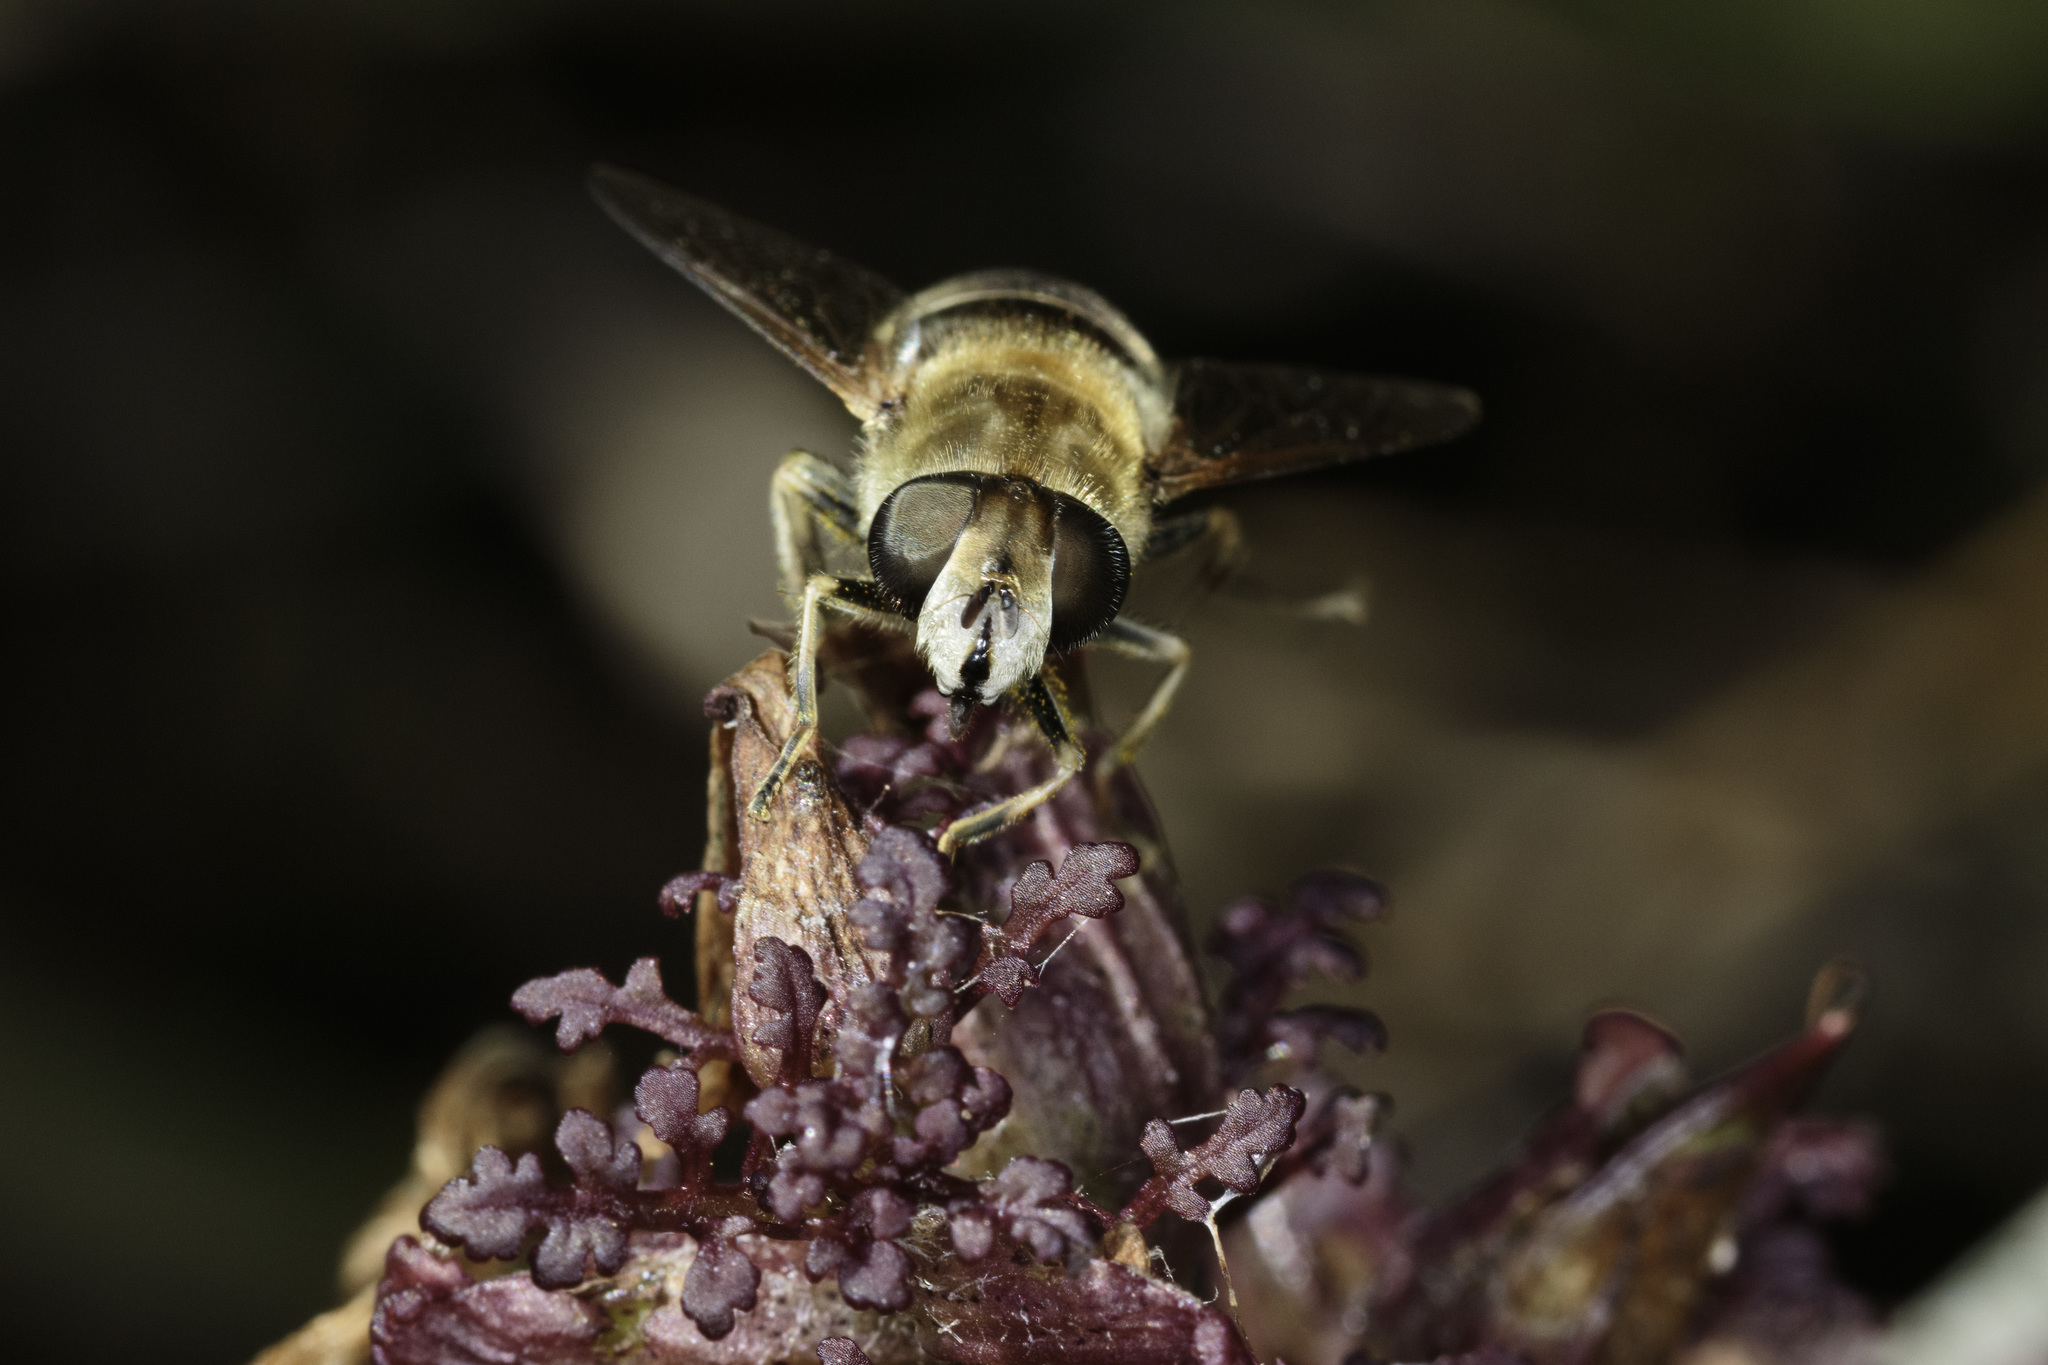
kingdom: Animalia
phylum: Arthropoda
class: Insecta
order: Diptera
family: Syrphidae
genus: Eristalis
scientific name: Eristalis nemorum
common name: Orange-spined drone fly
